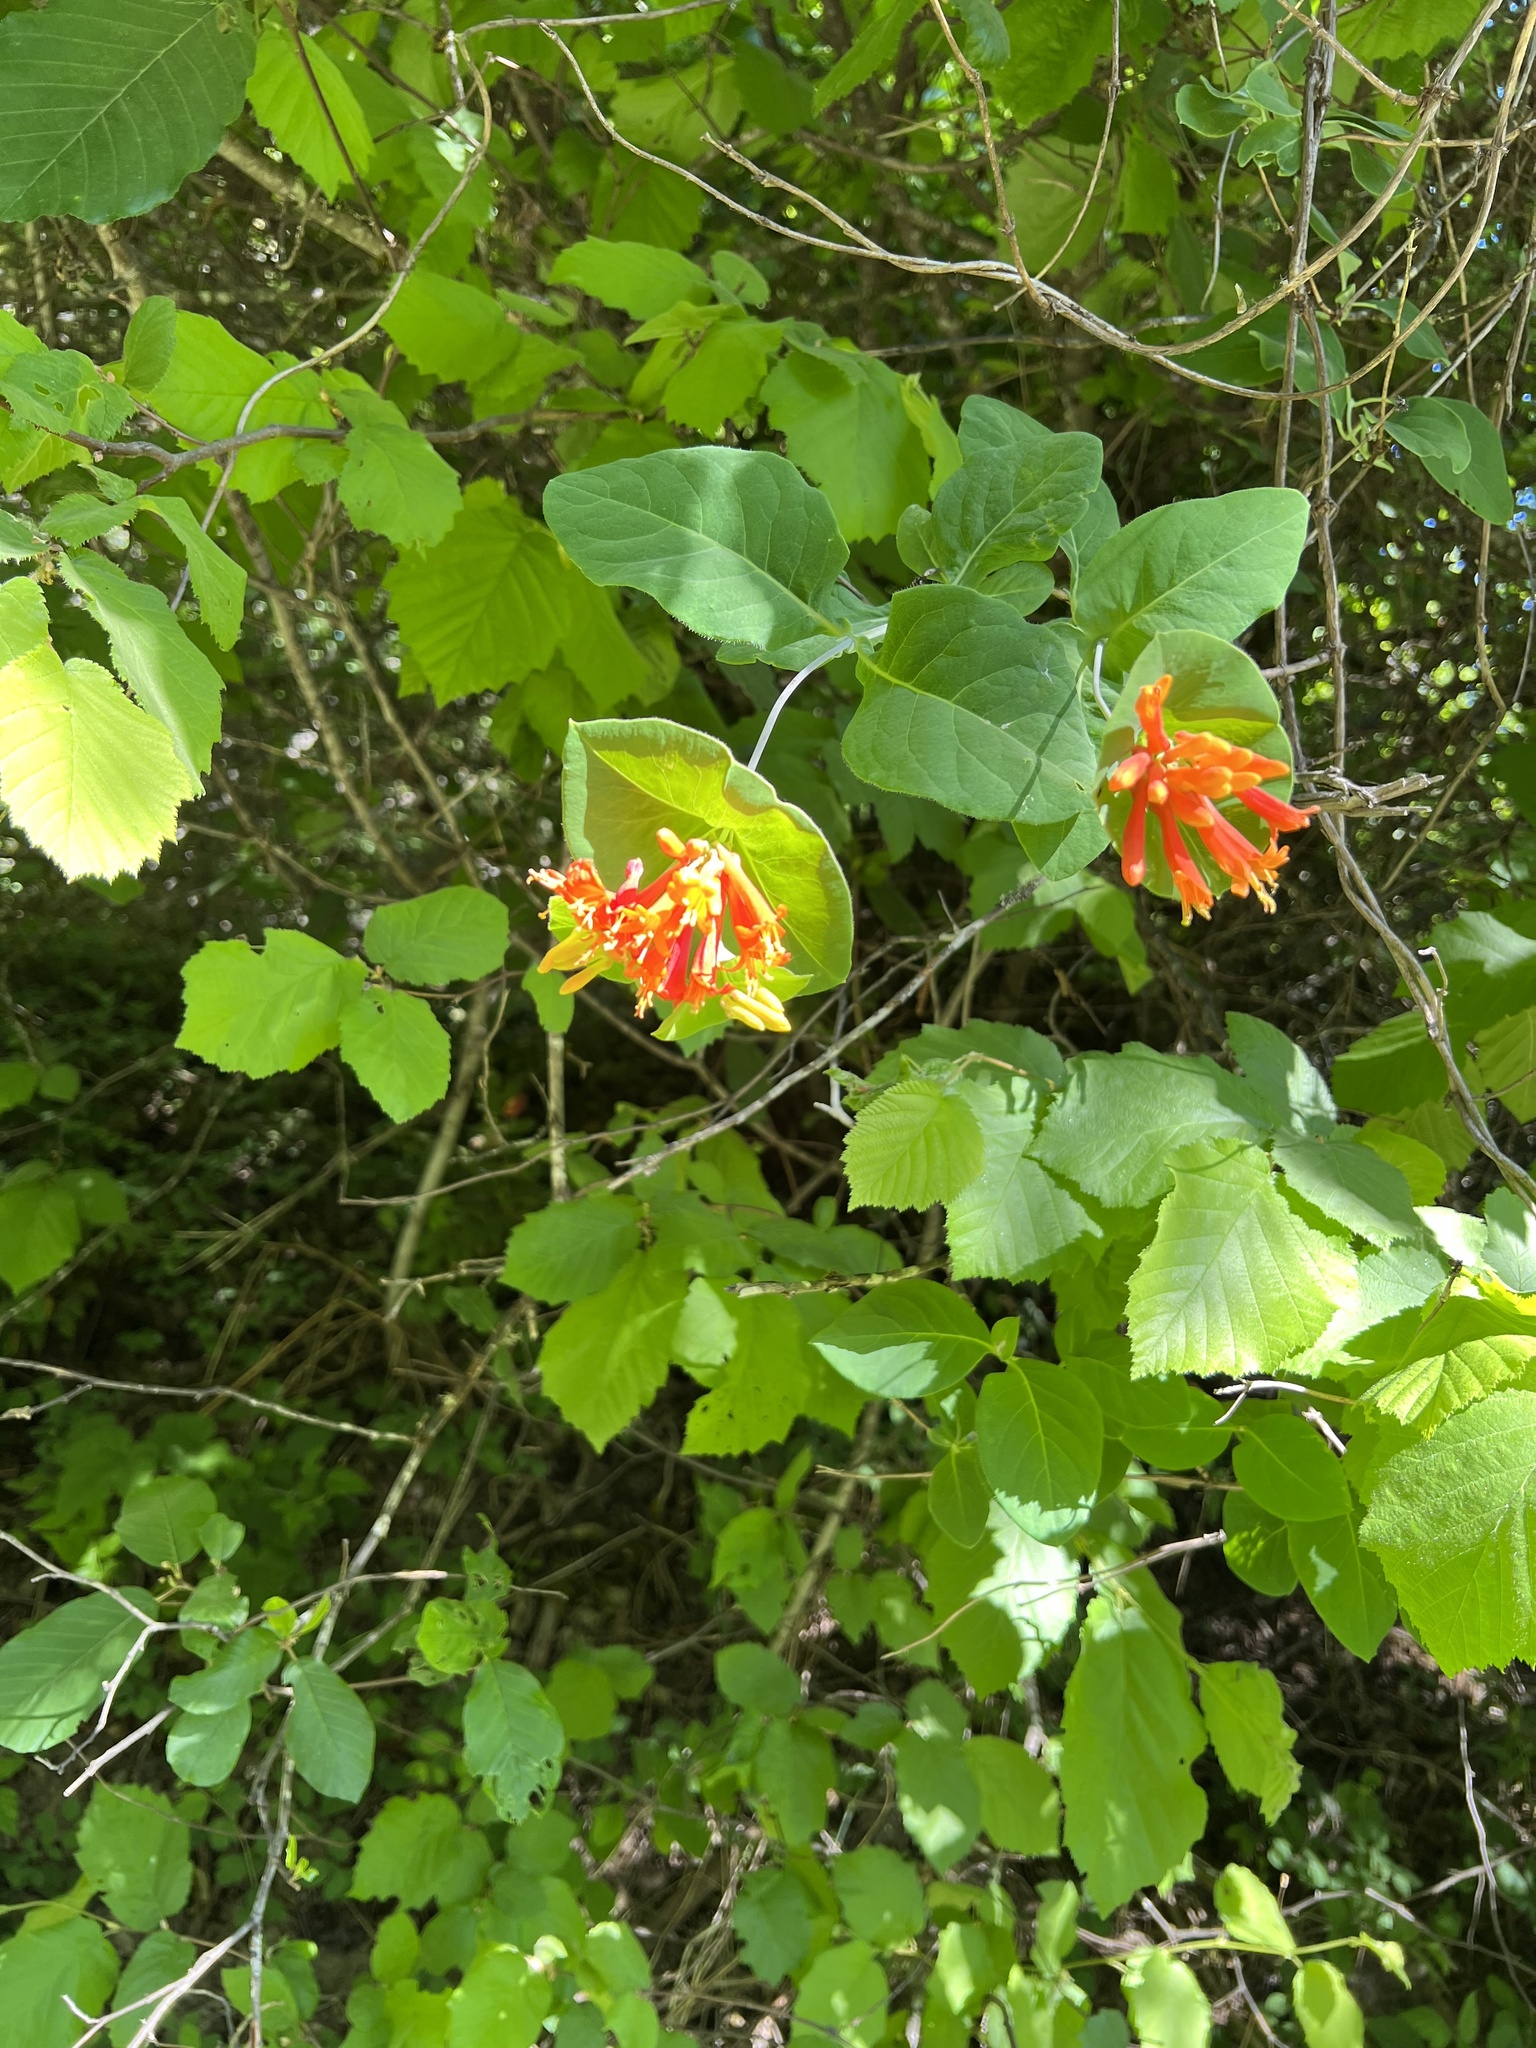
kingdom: Plantae
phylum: Tracheophyta
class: Magnoliopsida
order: Dipsacales
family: Caprifoliaceae
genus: Lonicera
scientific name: Lonicera ciliosa
